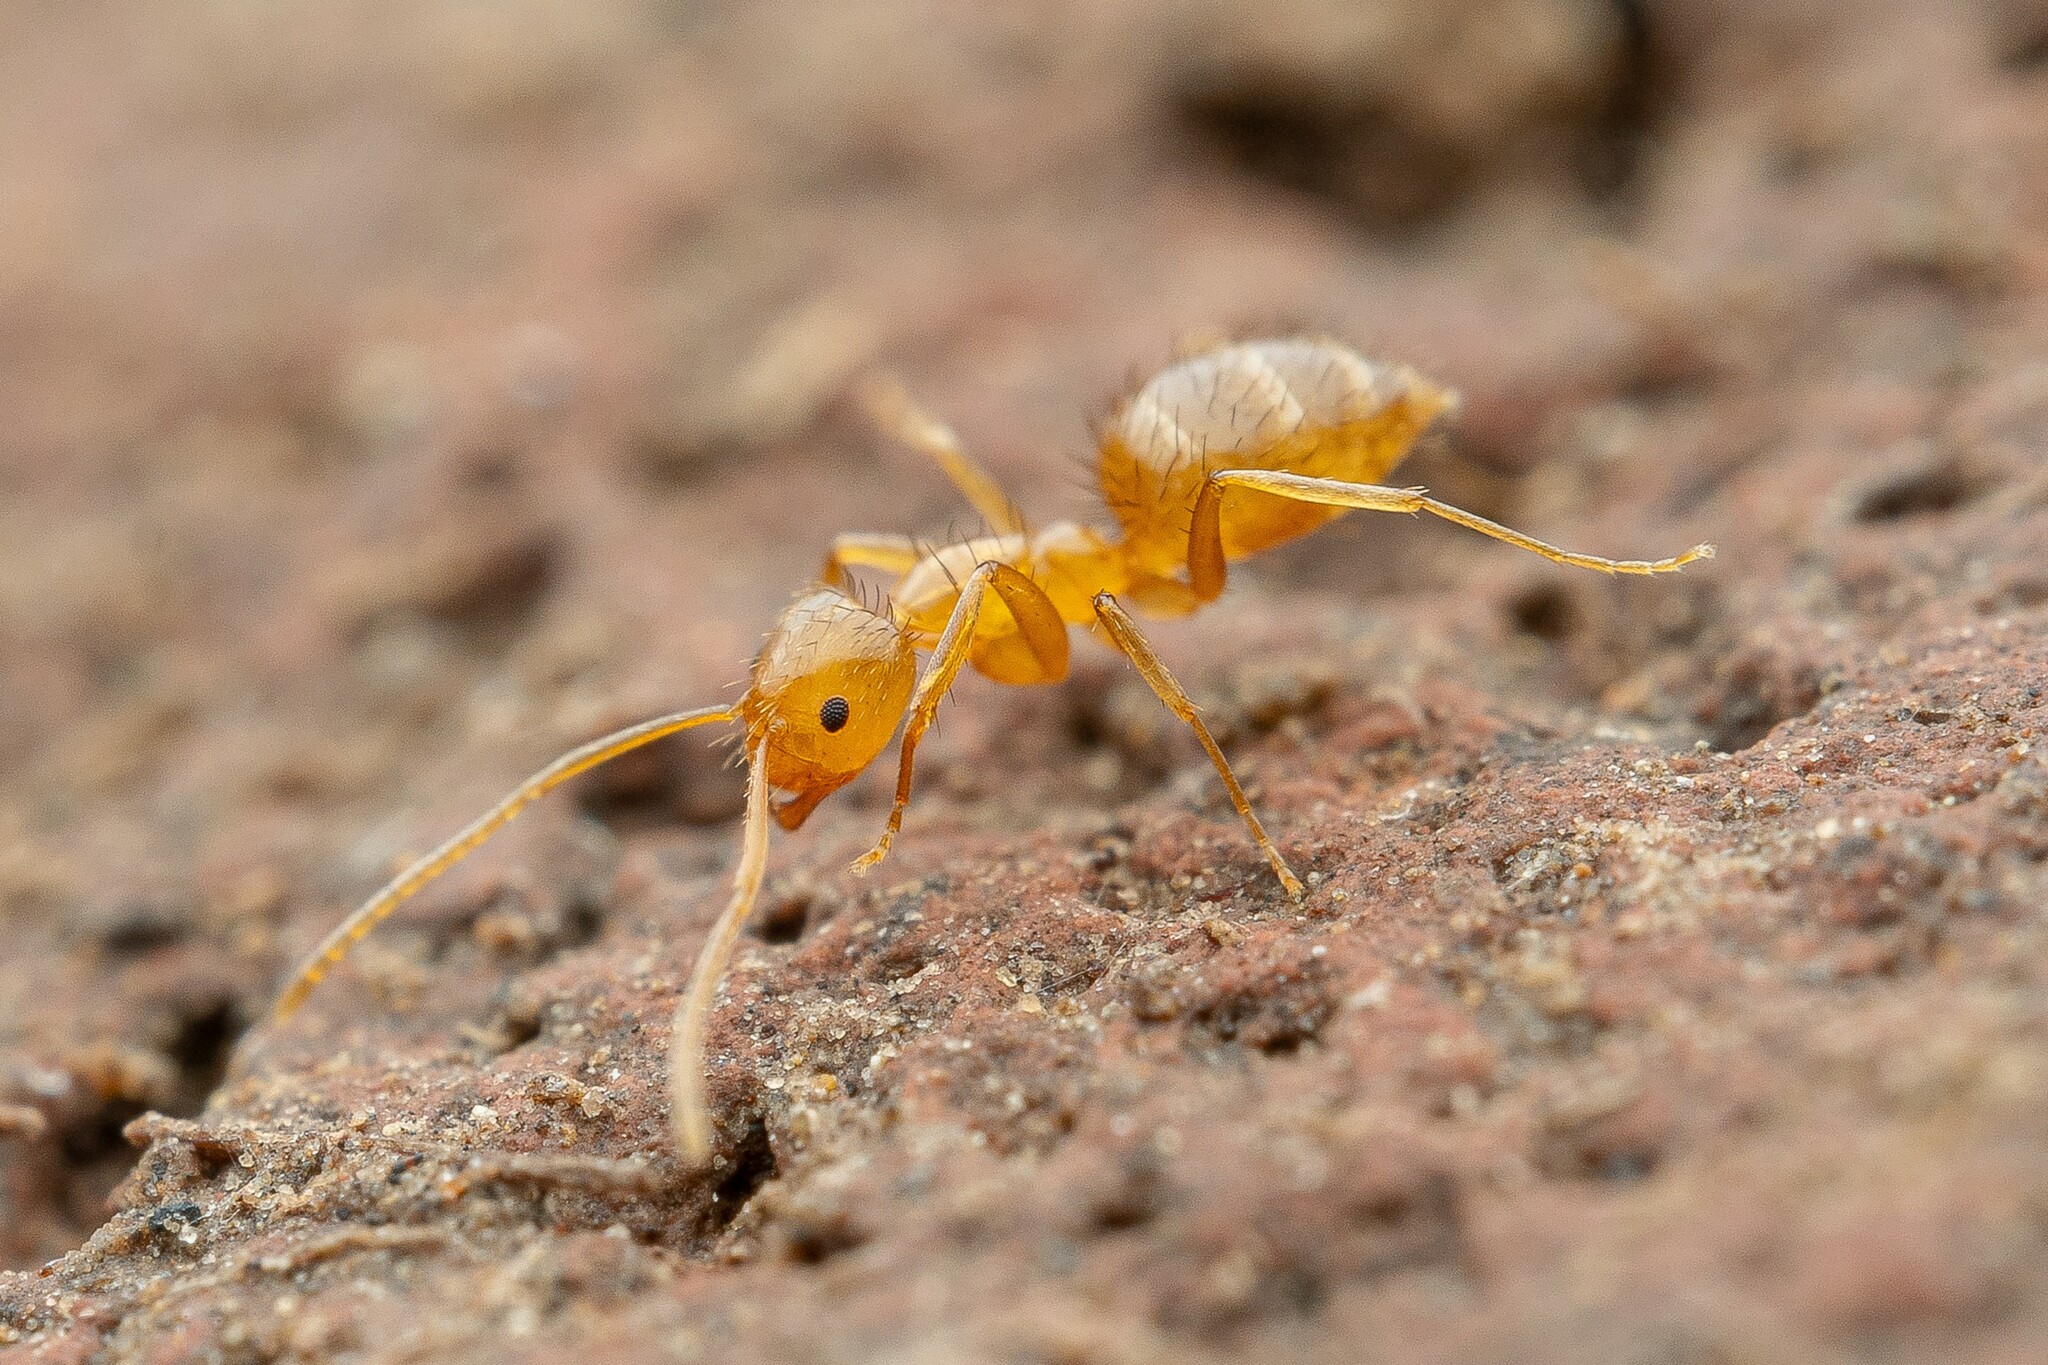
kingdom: Animalia
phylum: Arthropoda
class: Insecta
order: Hymenoptera
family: Formicidae
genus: Nylanderia
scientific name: Nylanderia terricola
